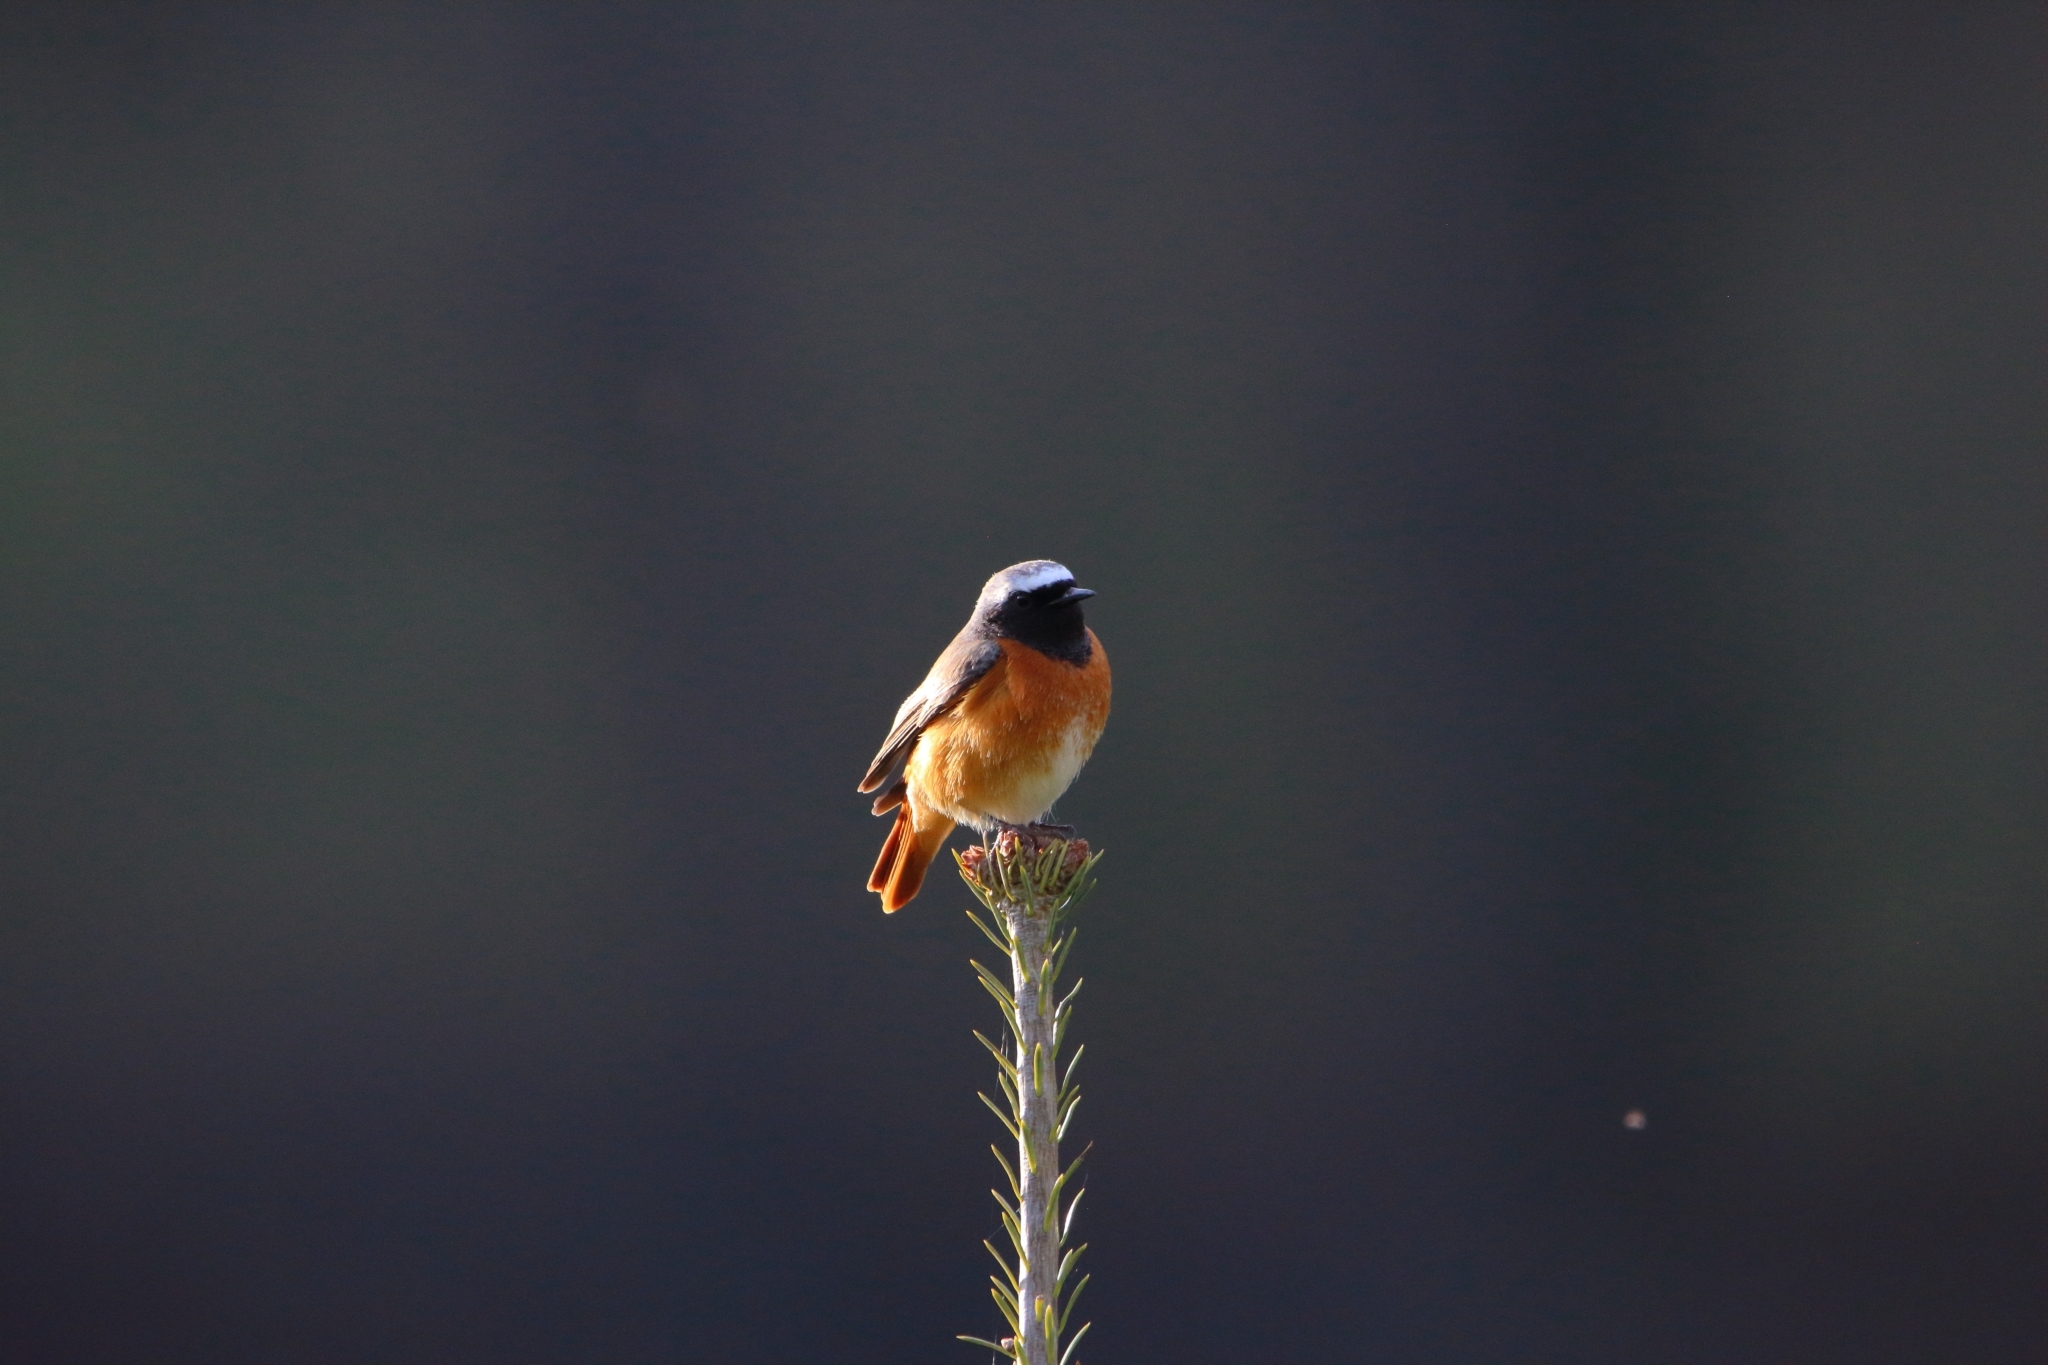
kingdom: Animalia
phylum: Chordata
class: Aves
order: Passeriformes
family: Muscicapidae
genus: Phoenicurus
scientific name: Phoenicurus phoenicurus
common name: Common redstart
